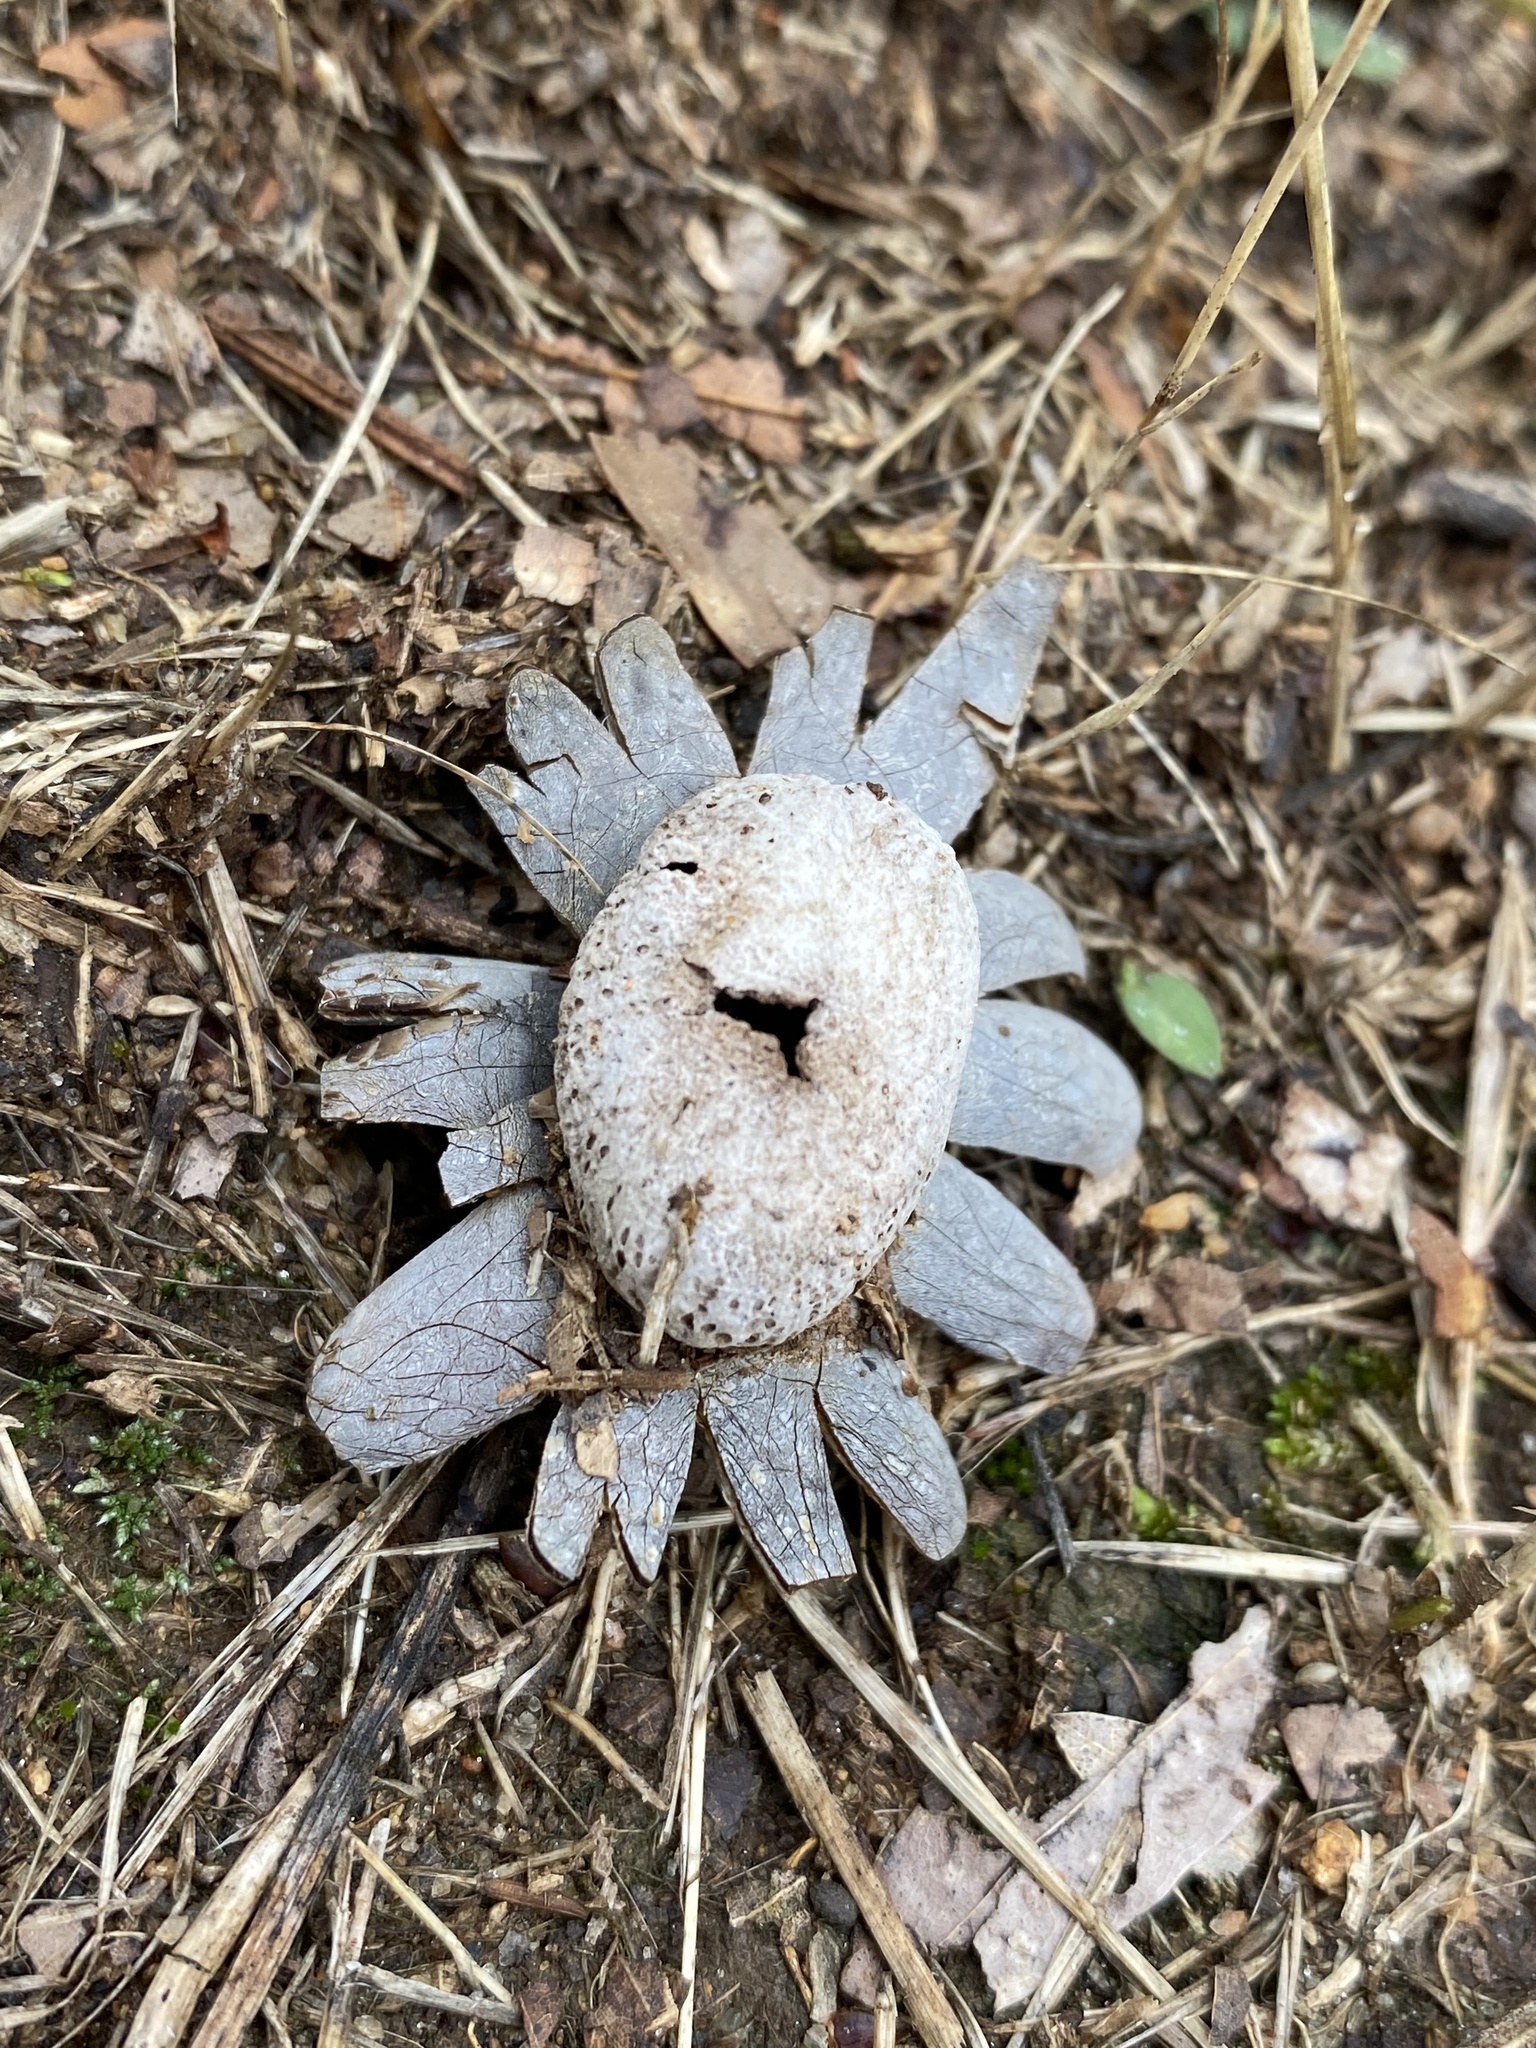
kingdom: Fungi
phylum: Basidiomycota
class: Agaricomycetes
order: Boletales
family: Diplocystidiaceae
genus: Astraeus
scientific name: Astraeus hygrometricus
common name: Barometer earthstar
